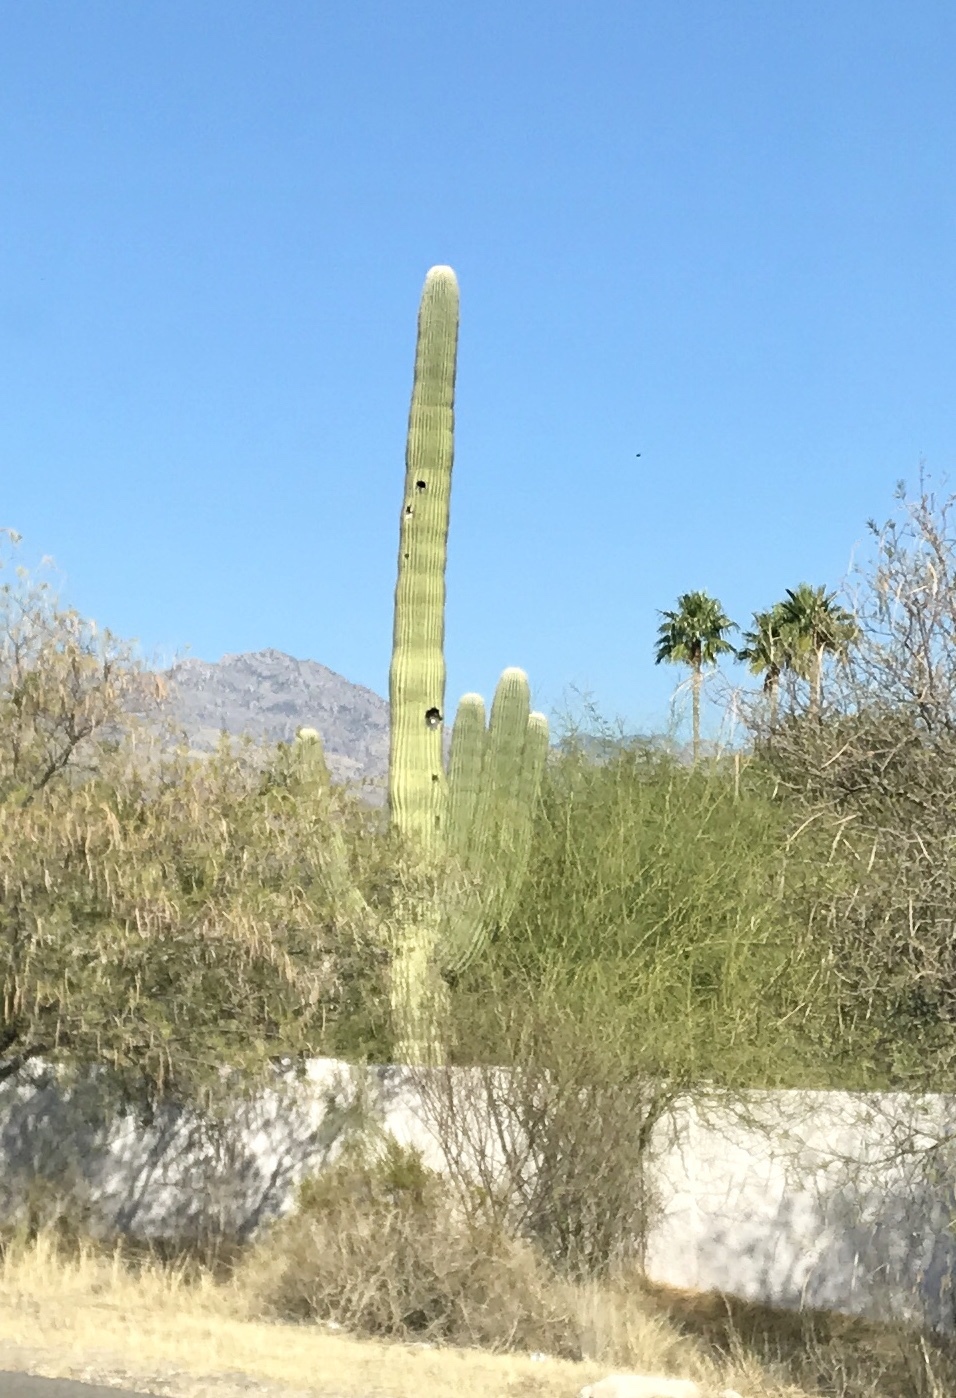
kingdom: Plantae
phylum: Tracheophyta
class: Magnoliopsida
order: Caryophyllales
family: Cactaceae
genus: Carnegiea
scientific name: Carnegiea gigantea
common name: Saguaro
